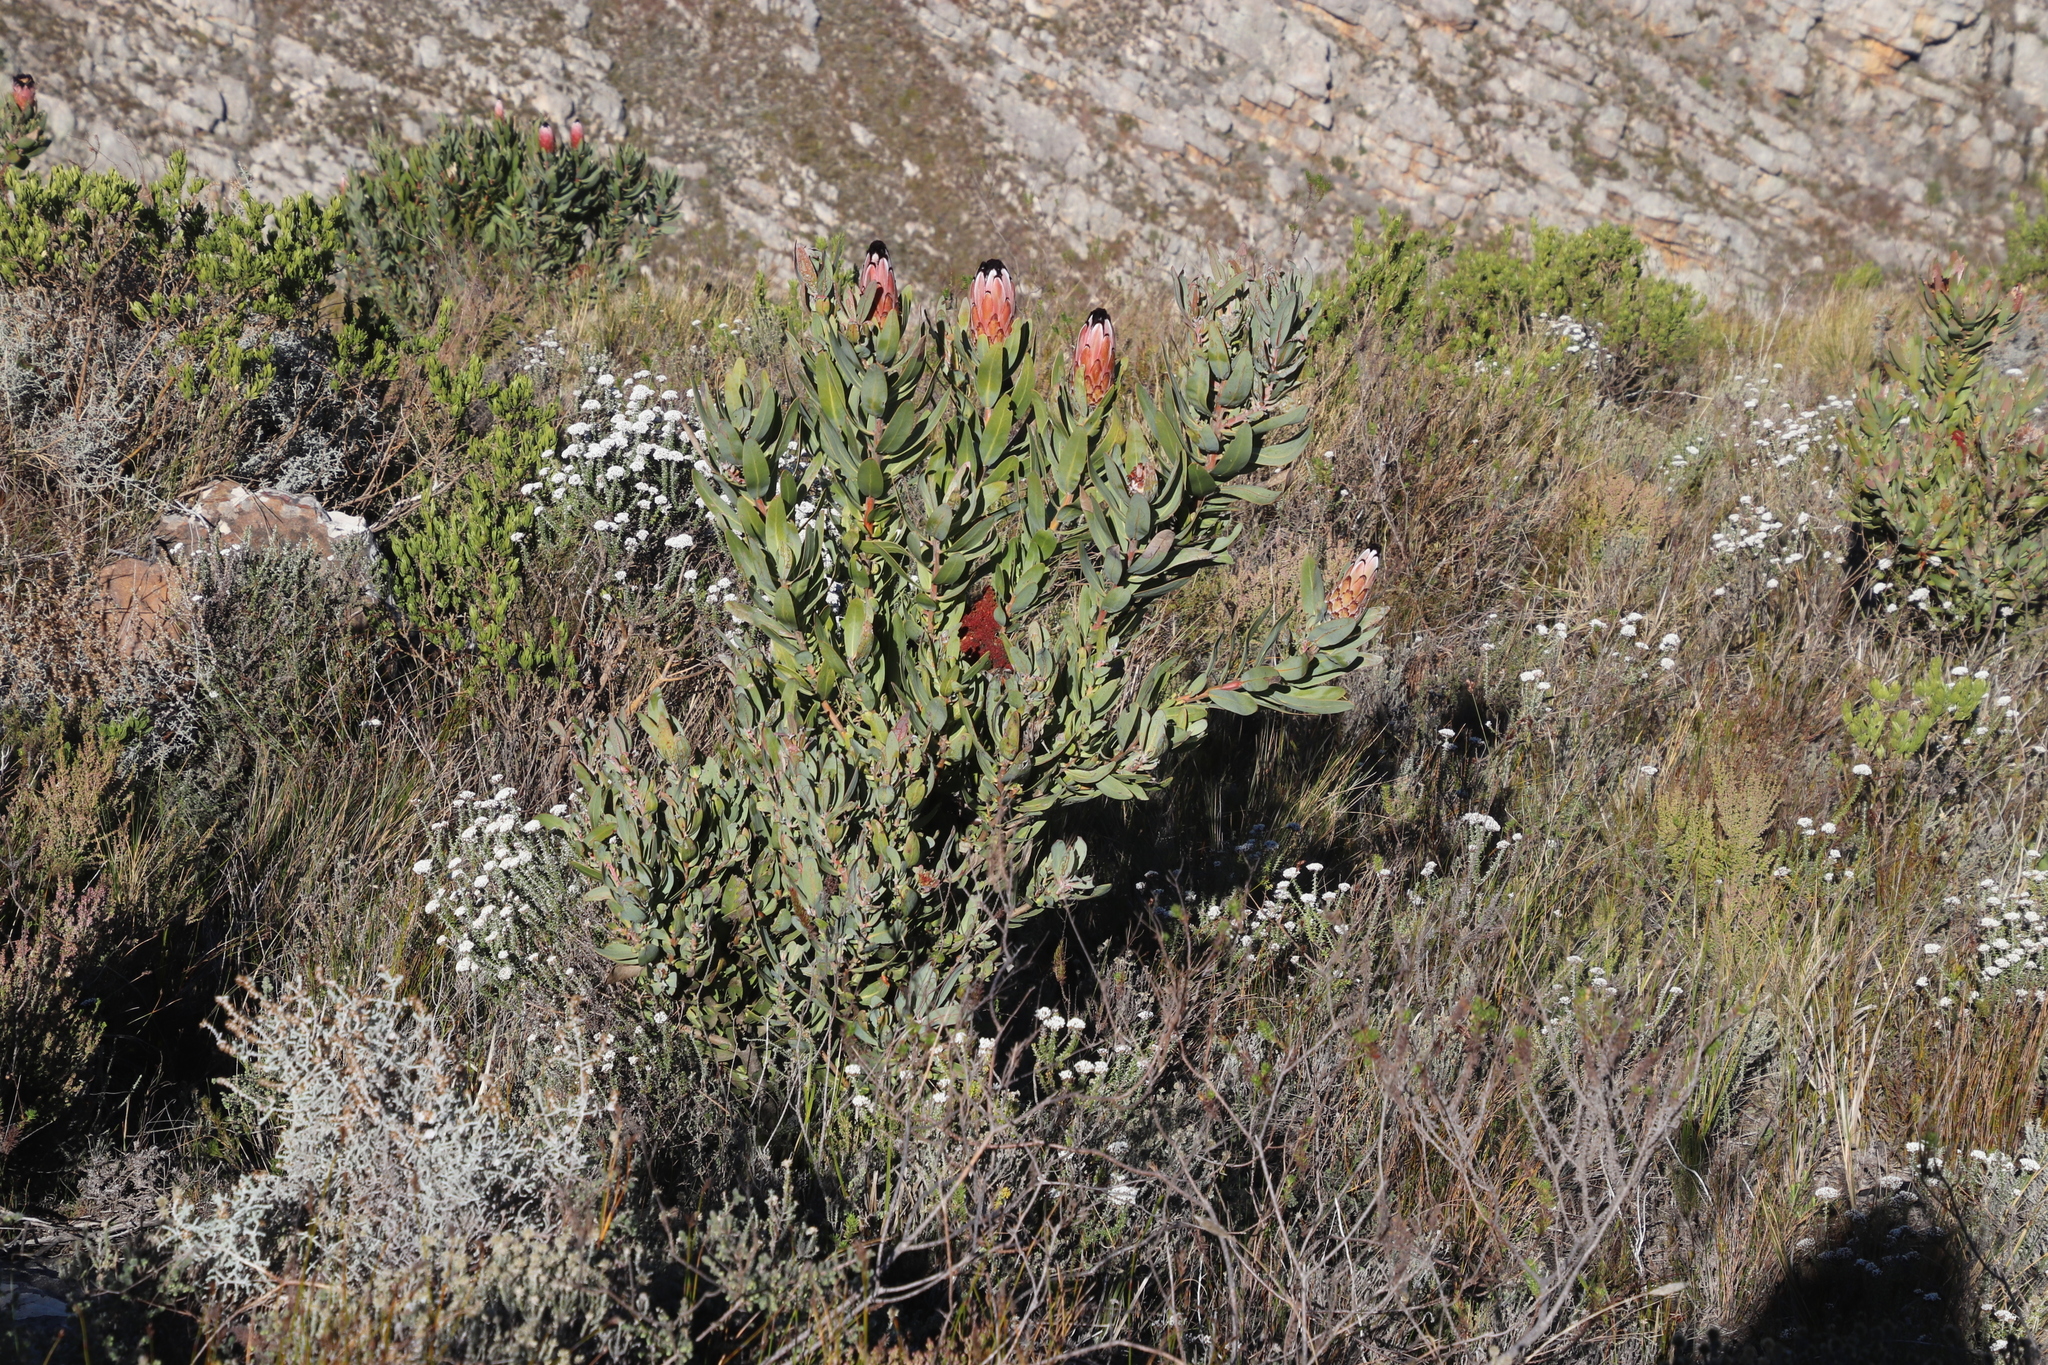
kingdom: Plantae
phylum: Tracheophyta
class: Magnoliopsida
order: Proteales
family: Proteaceae
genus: Protea
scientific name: Protea laurifolia
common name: Grey-leaf sugarbsh
